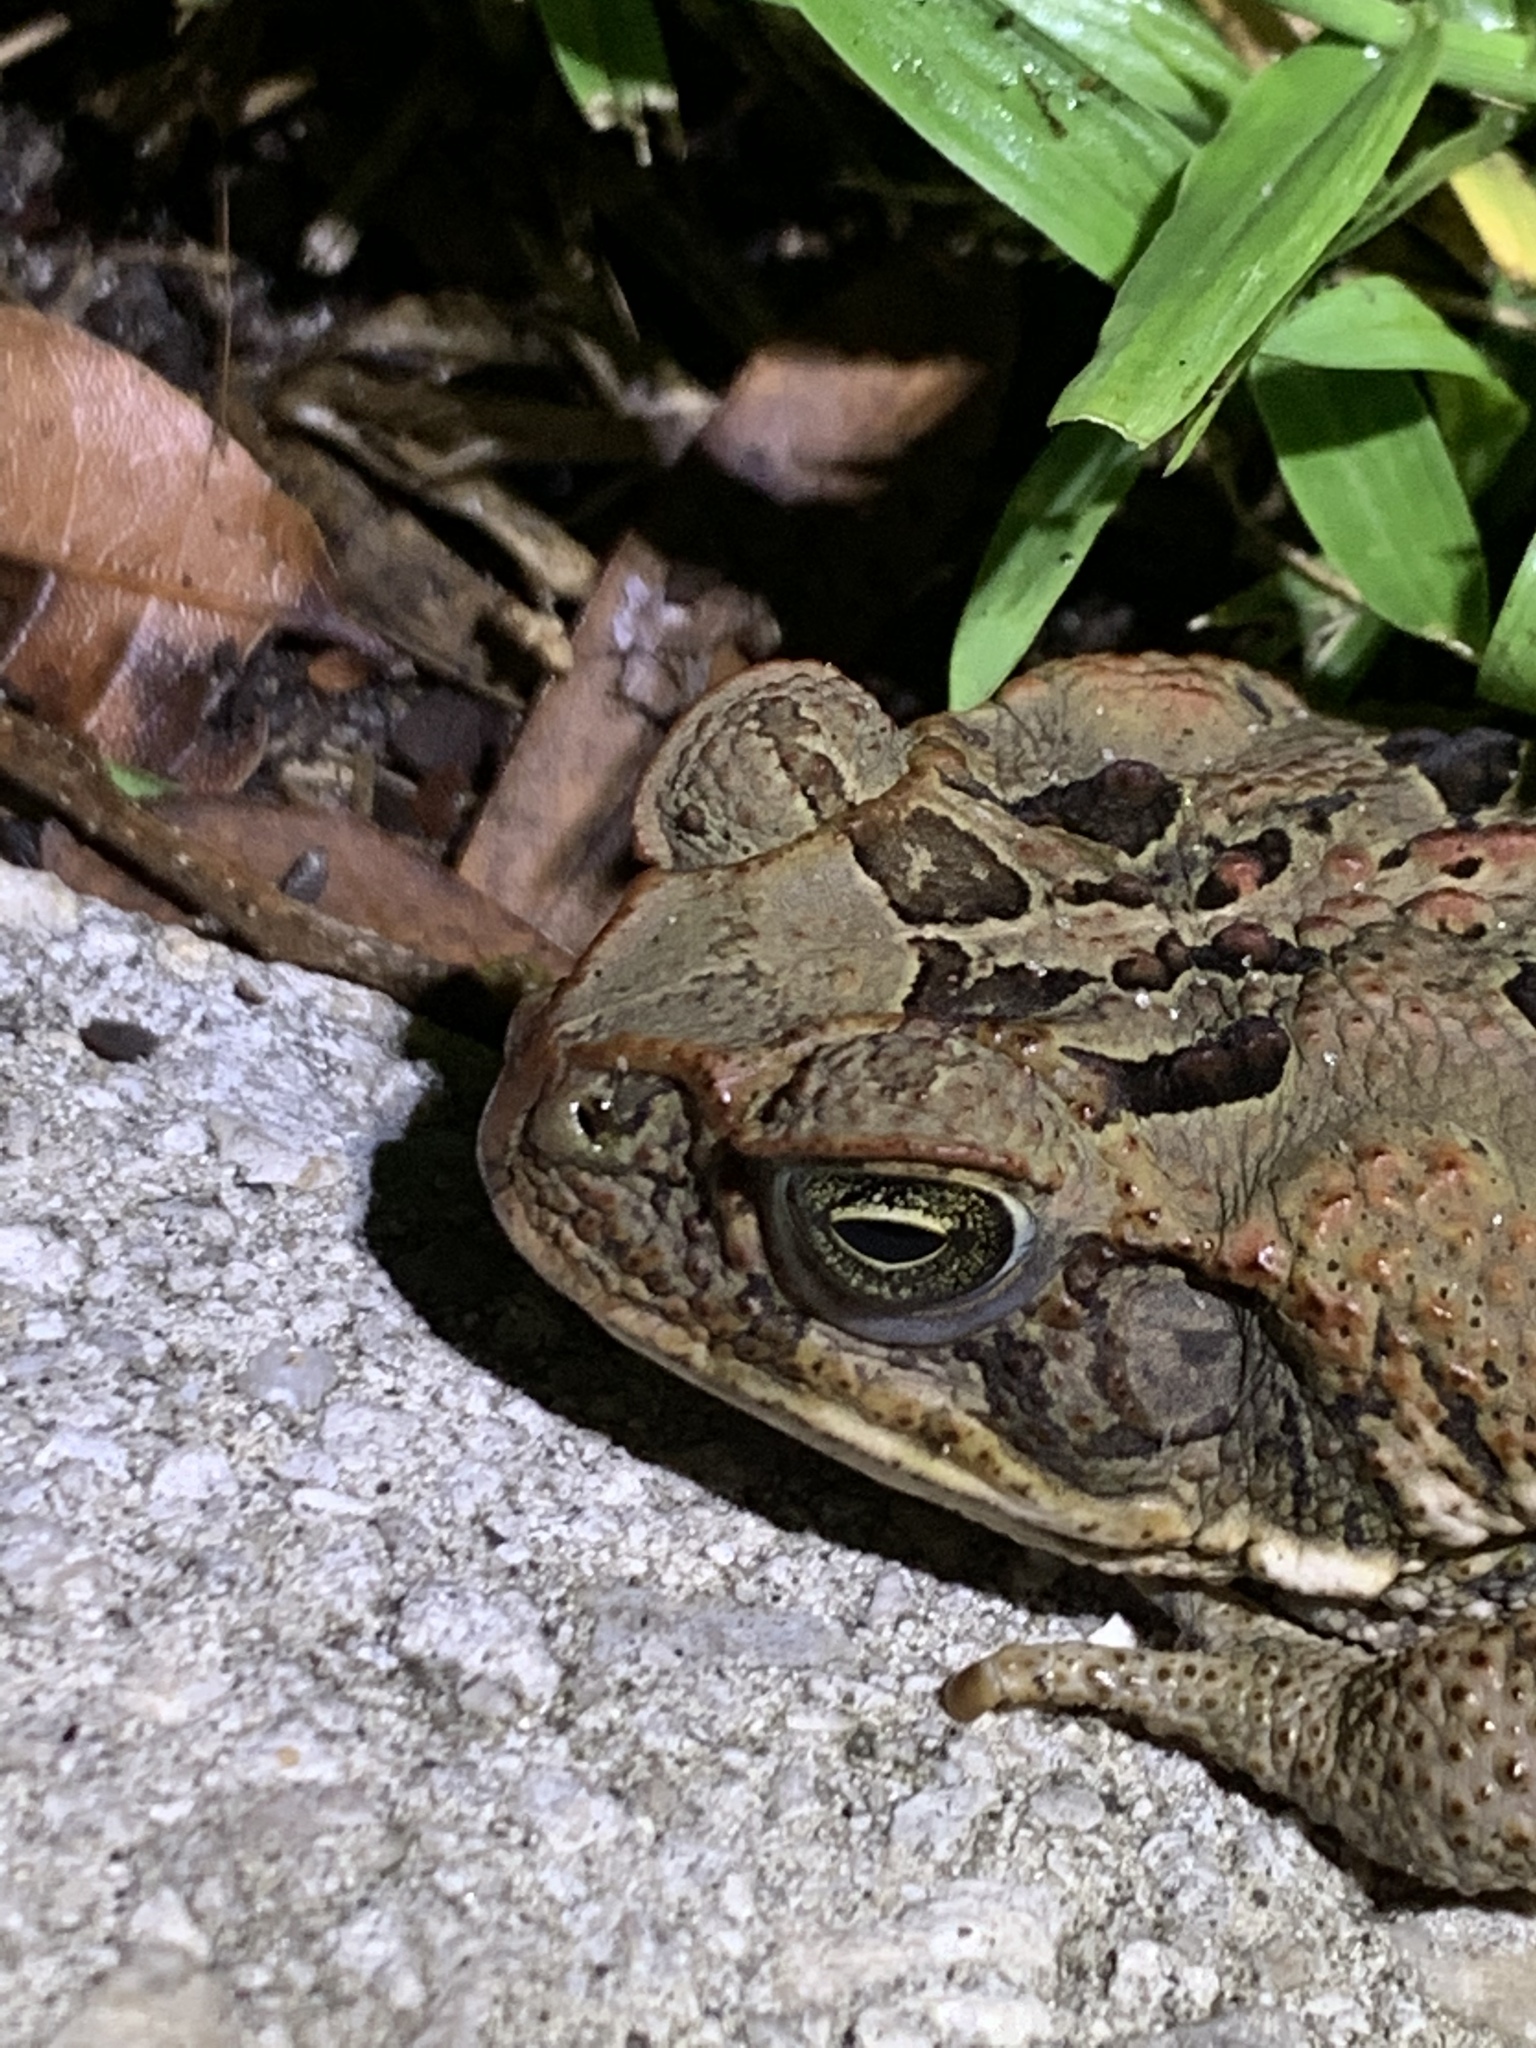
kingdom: Animalia
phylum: Chordata
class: Amphibia
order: Anura
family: Bufonidae
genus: Rhinella
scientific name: Rhinella marina
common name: Cane toad
